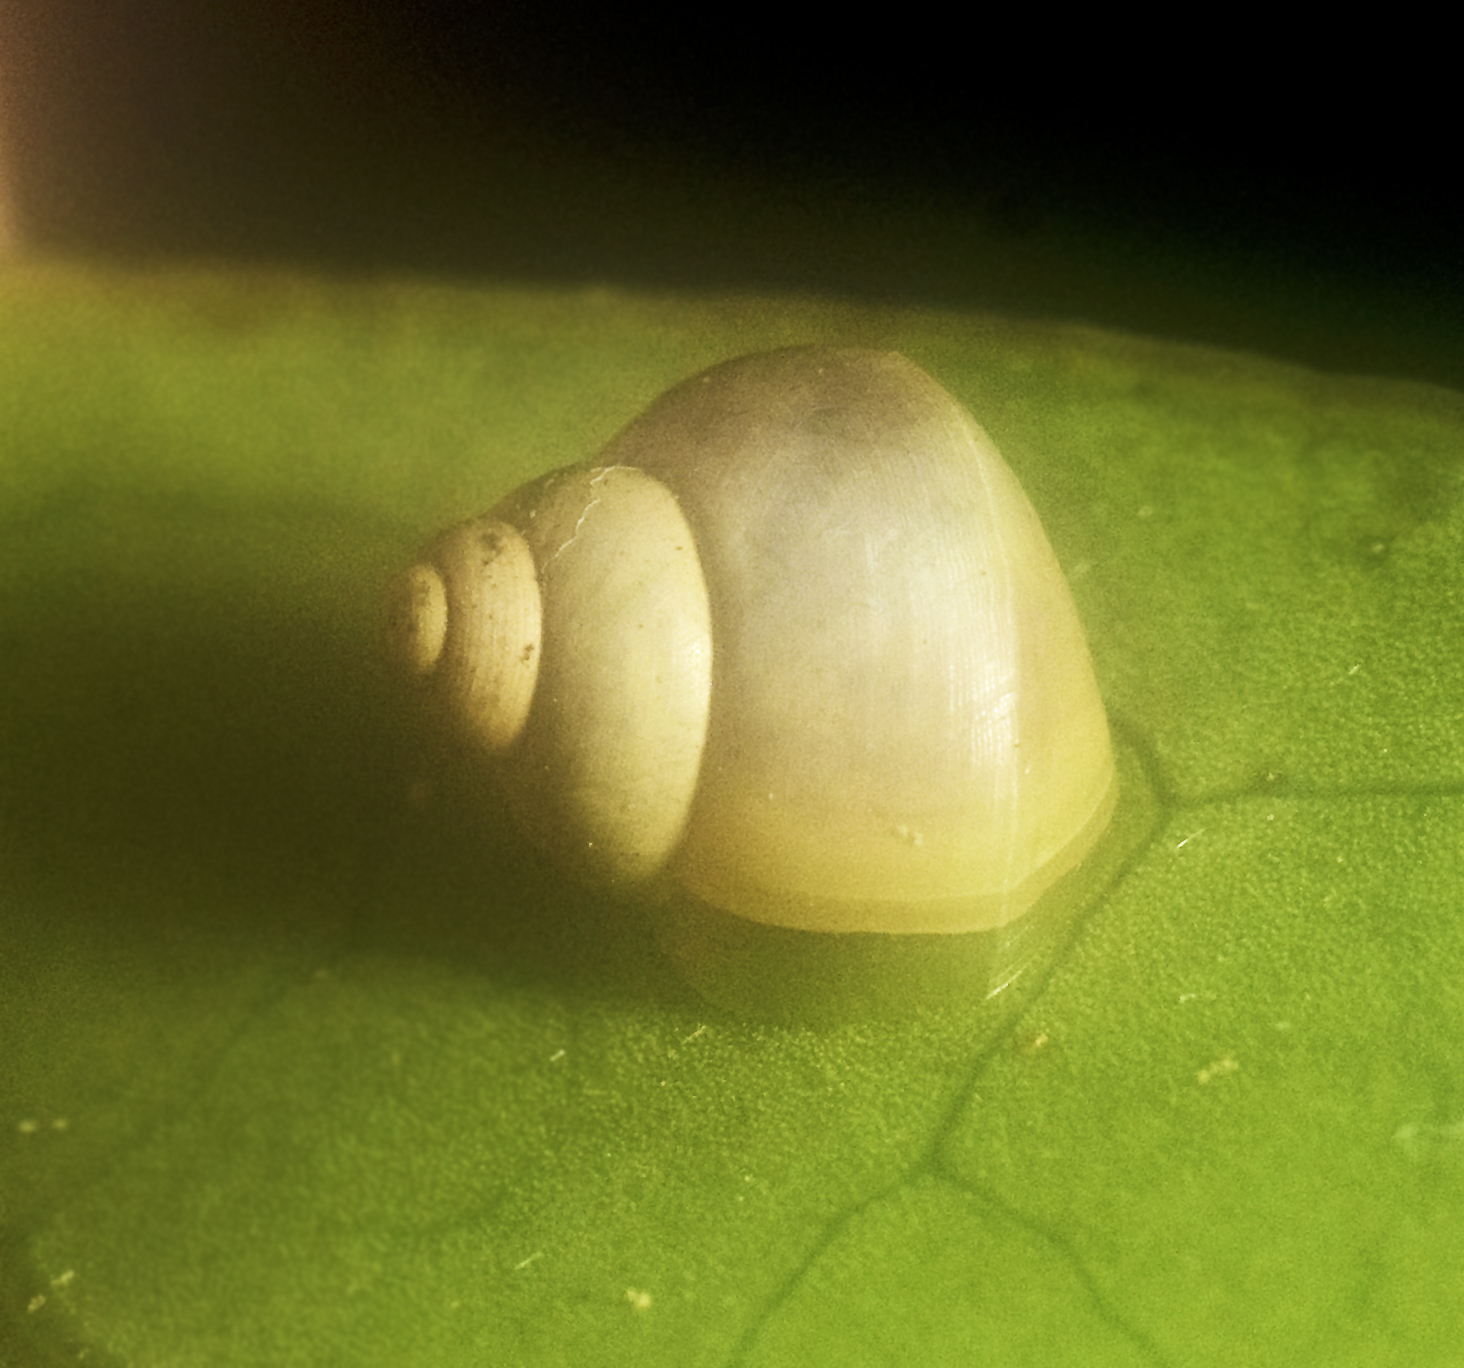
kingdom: Animalia
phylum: Mollusca
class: Gastropoda
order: Architaenioglossa
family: Cyclophoridae
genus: Leptopoma
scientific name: Leptopoma perlucidum
